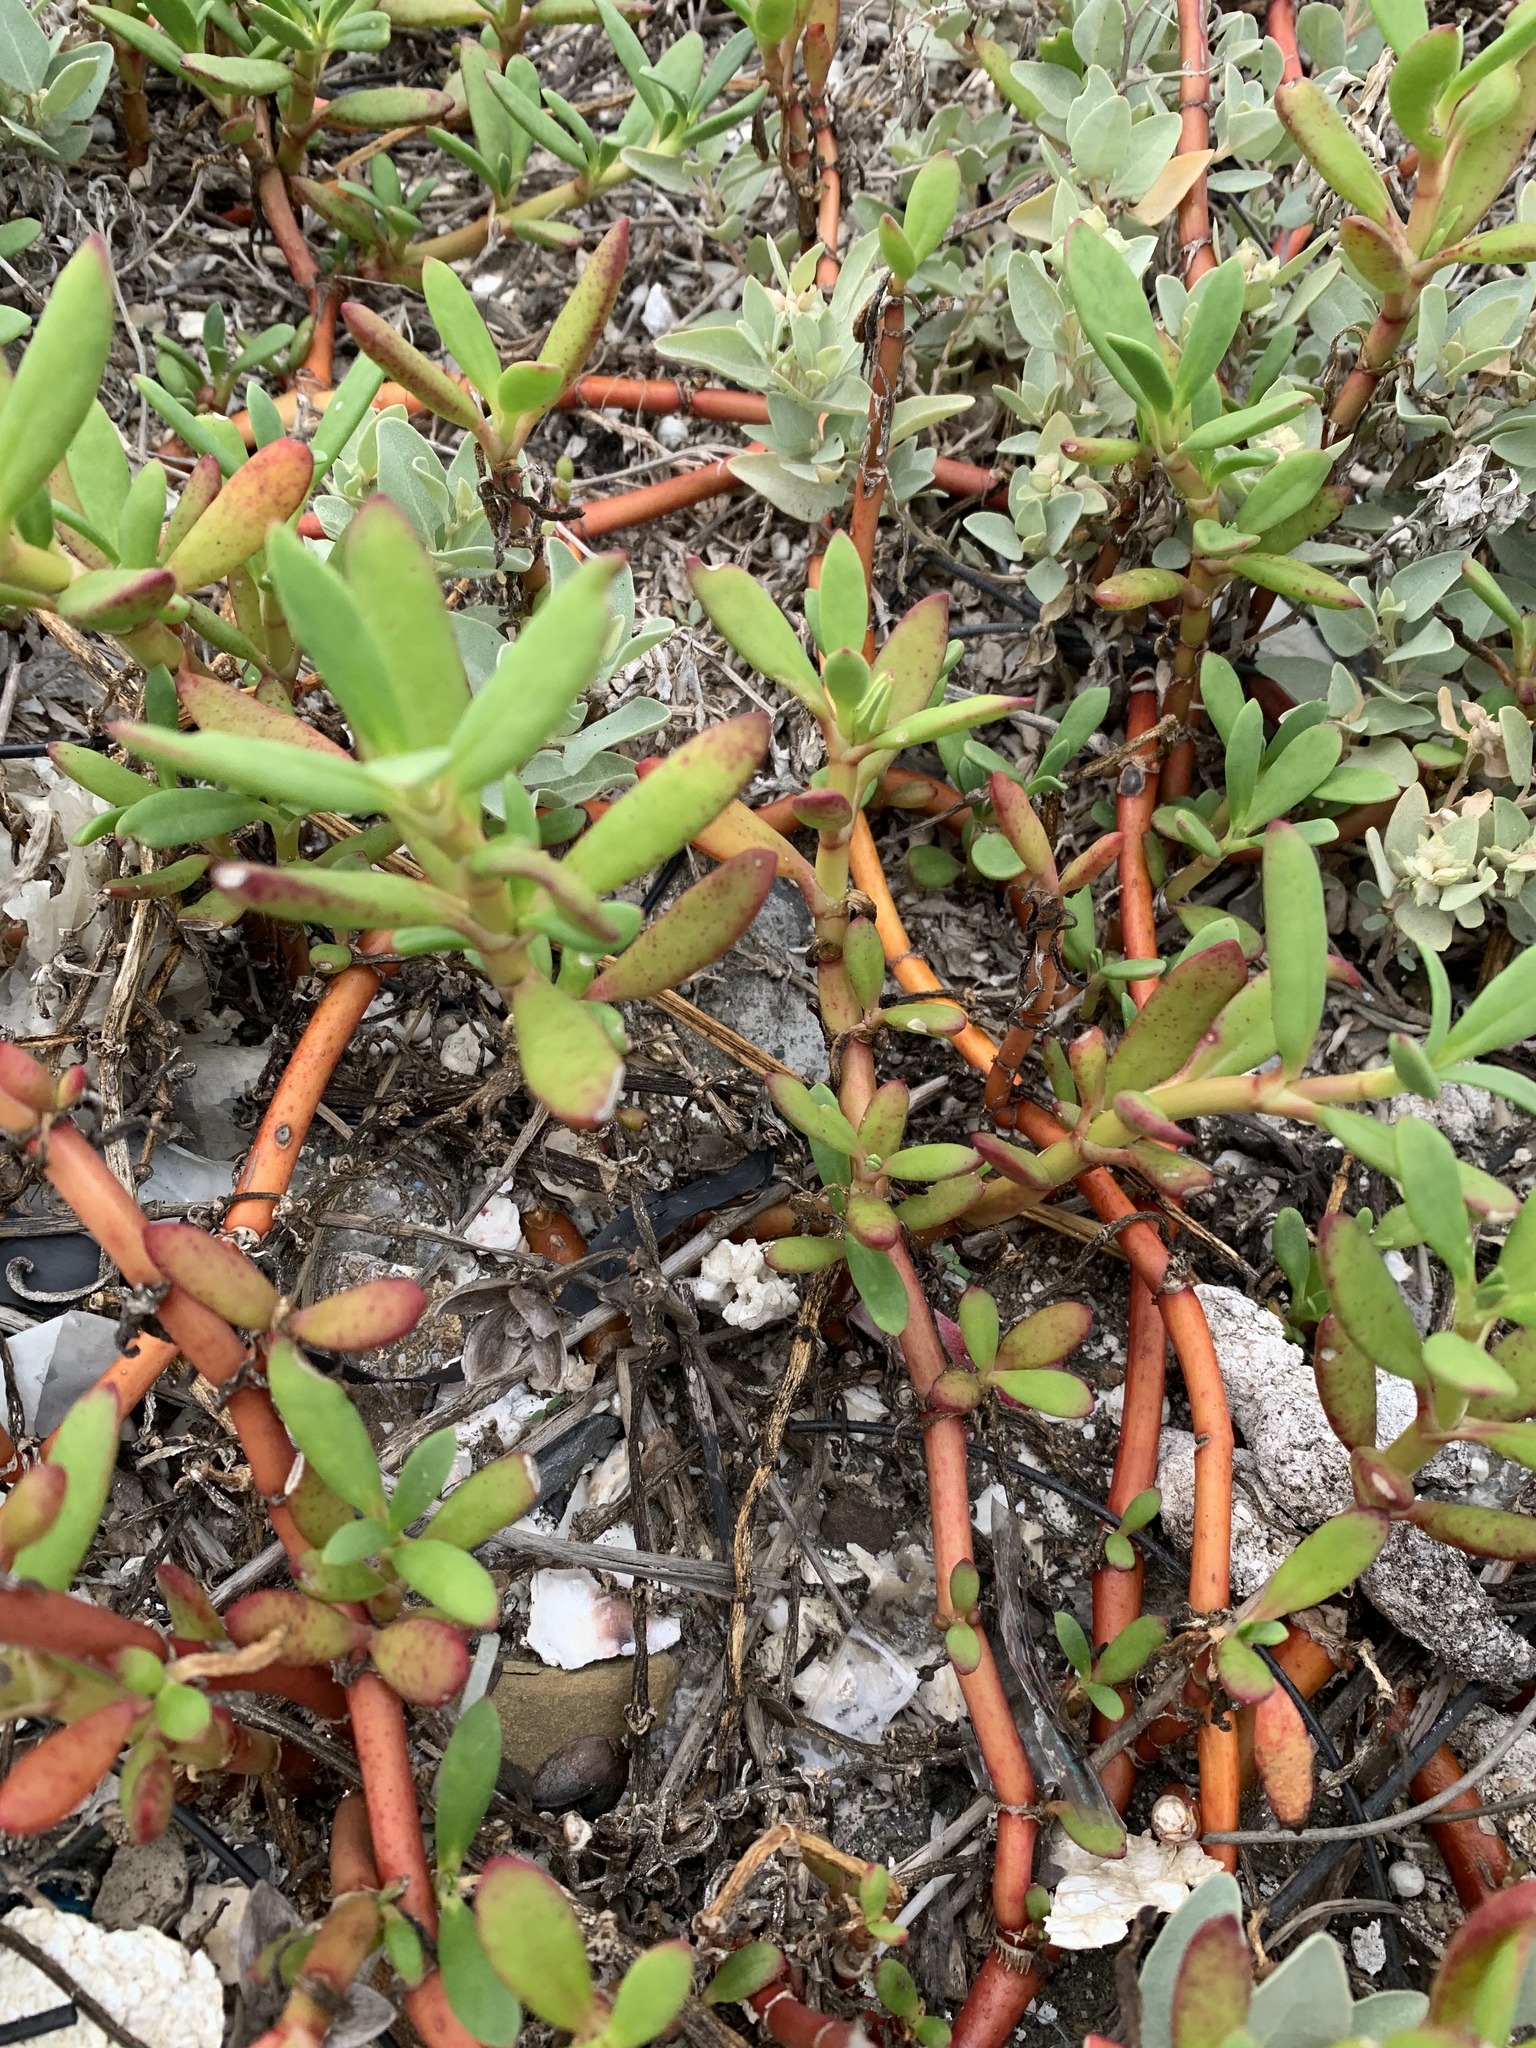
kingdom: Plantae
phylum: Tracheophyta
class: Magnoliopsida
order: Caryophyllales
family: Aizoaceae
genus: Sesuvium
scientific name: Sesuvium portulacastrum
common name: Sea-purslane
